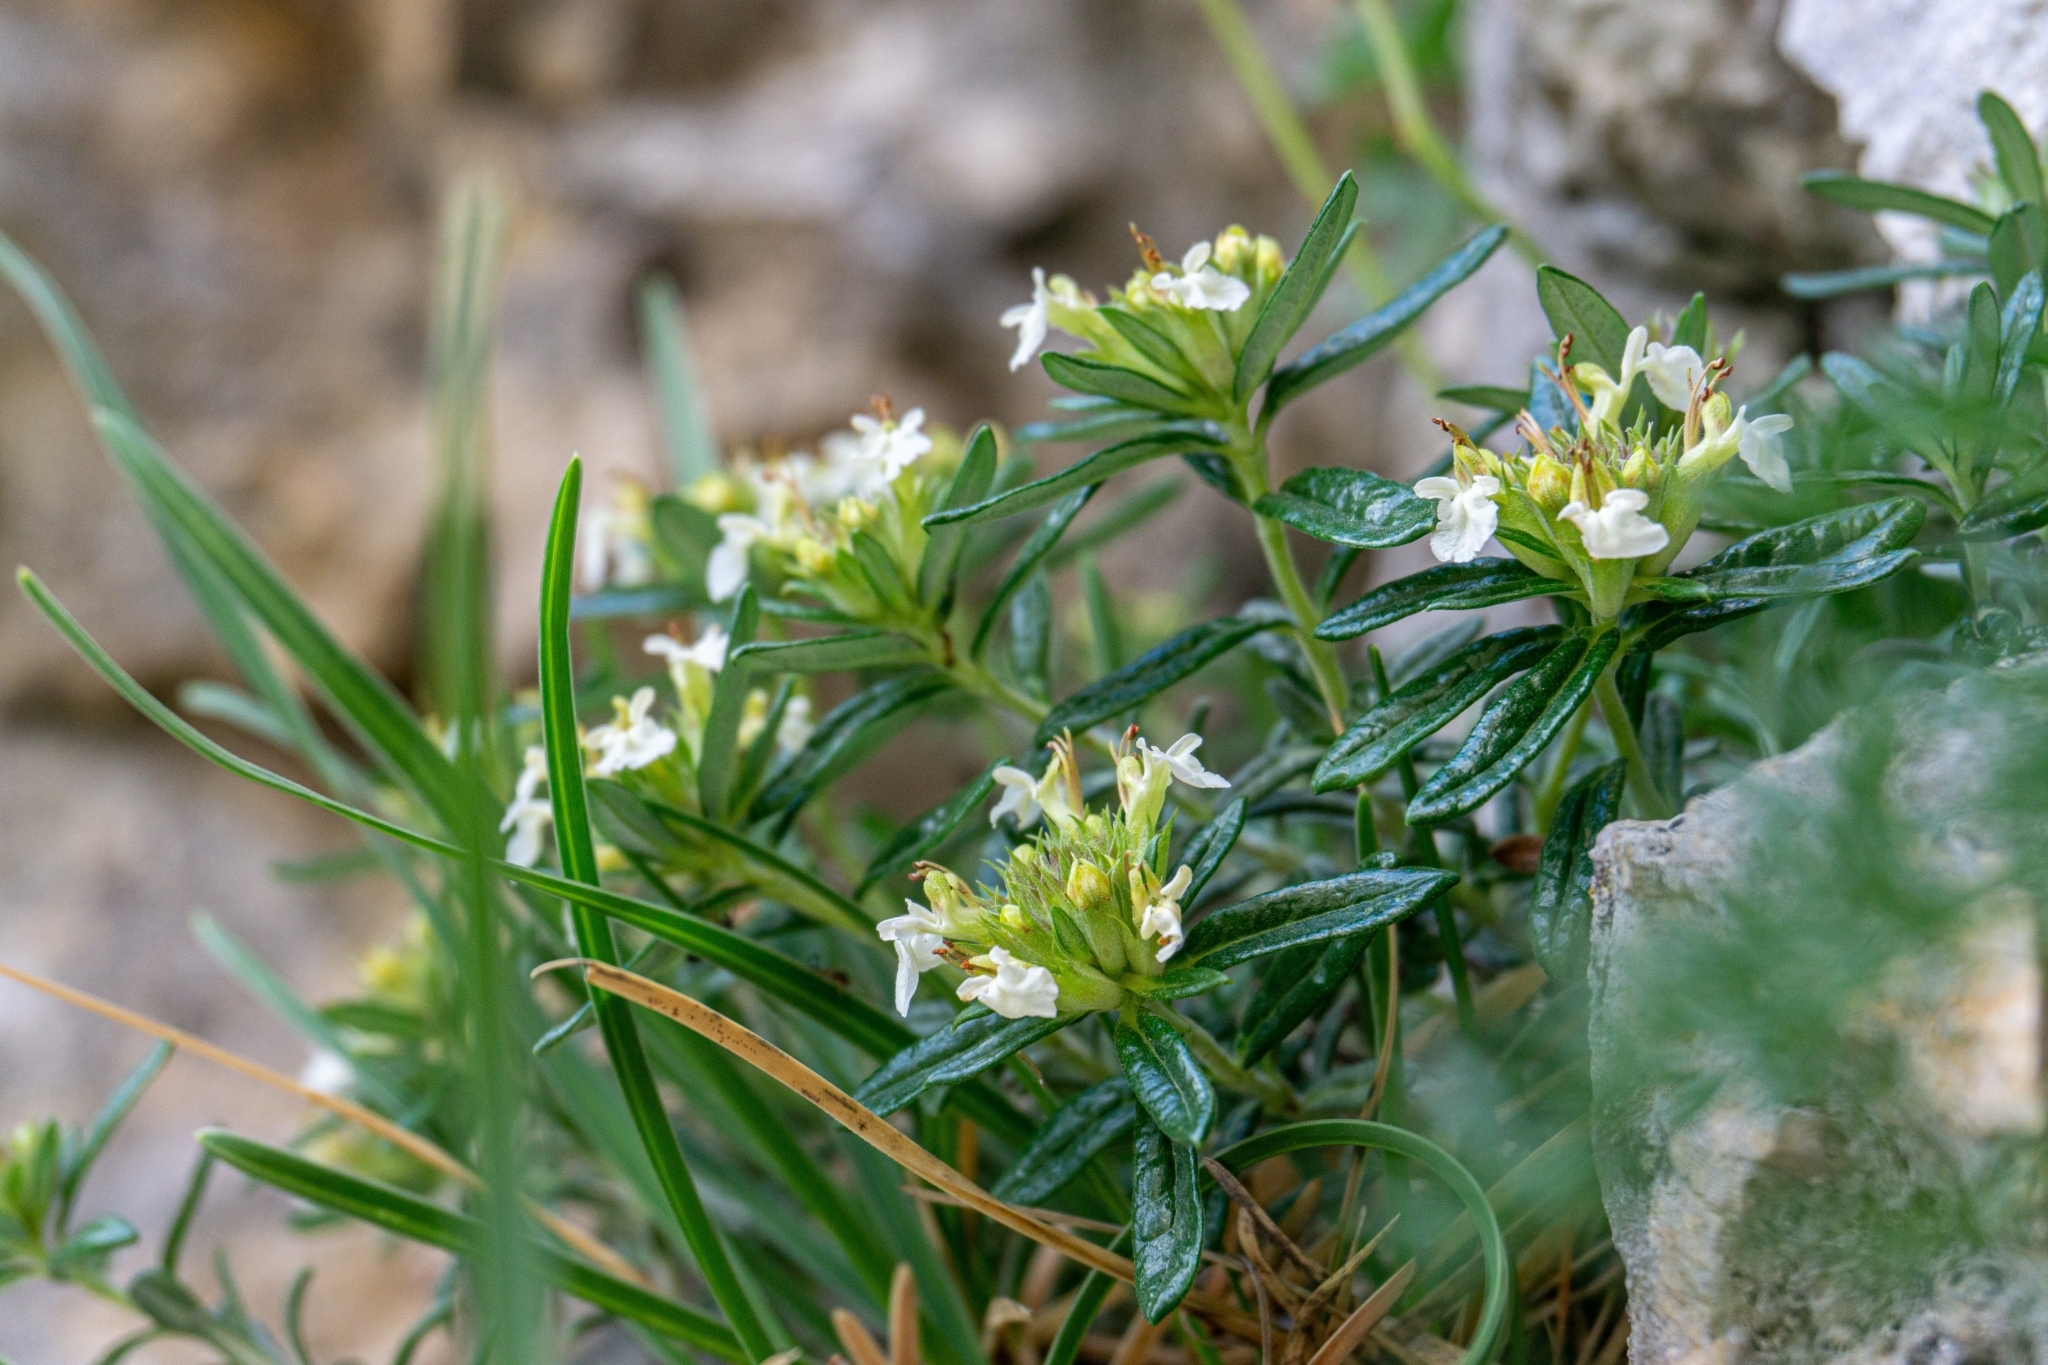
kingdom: Plantae
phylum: Tracheophyta
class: Magnoliopsida
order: Lamiales
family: Lamiaceae
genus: Teucrium
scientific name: Teucrium montanum
